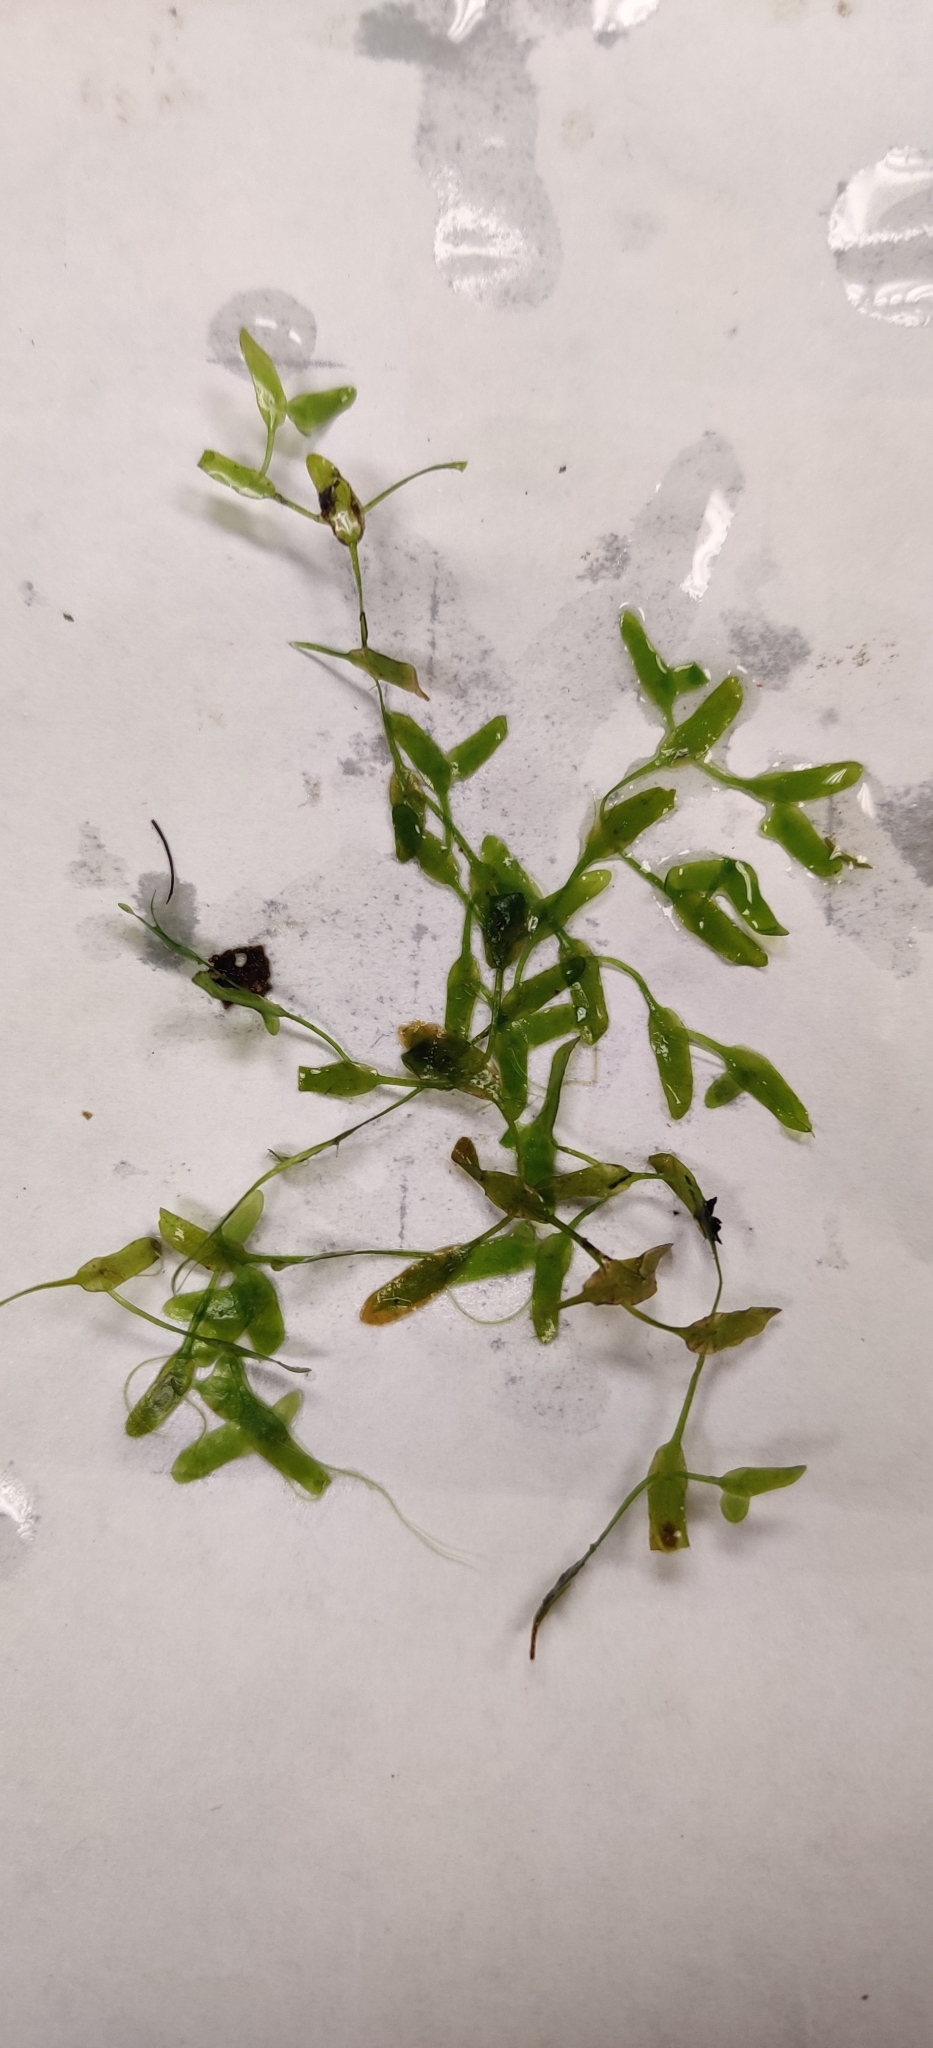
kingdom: Plantae
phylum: Tracheophyta
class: Liliopsida
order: Alismatales
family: Araceae
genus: Lemna
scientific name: Lemna trisulca
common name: Ivy-leaved duckweed
